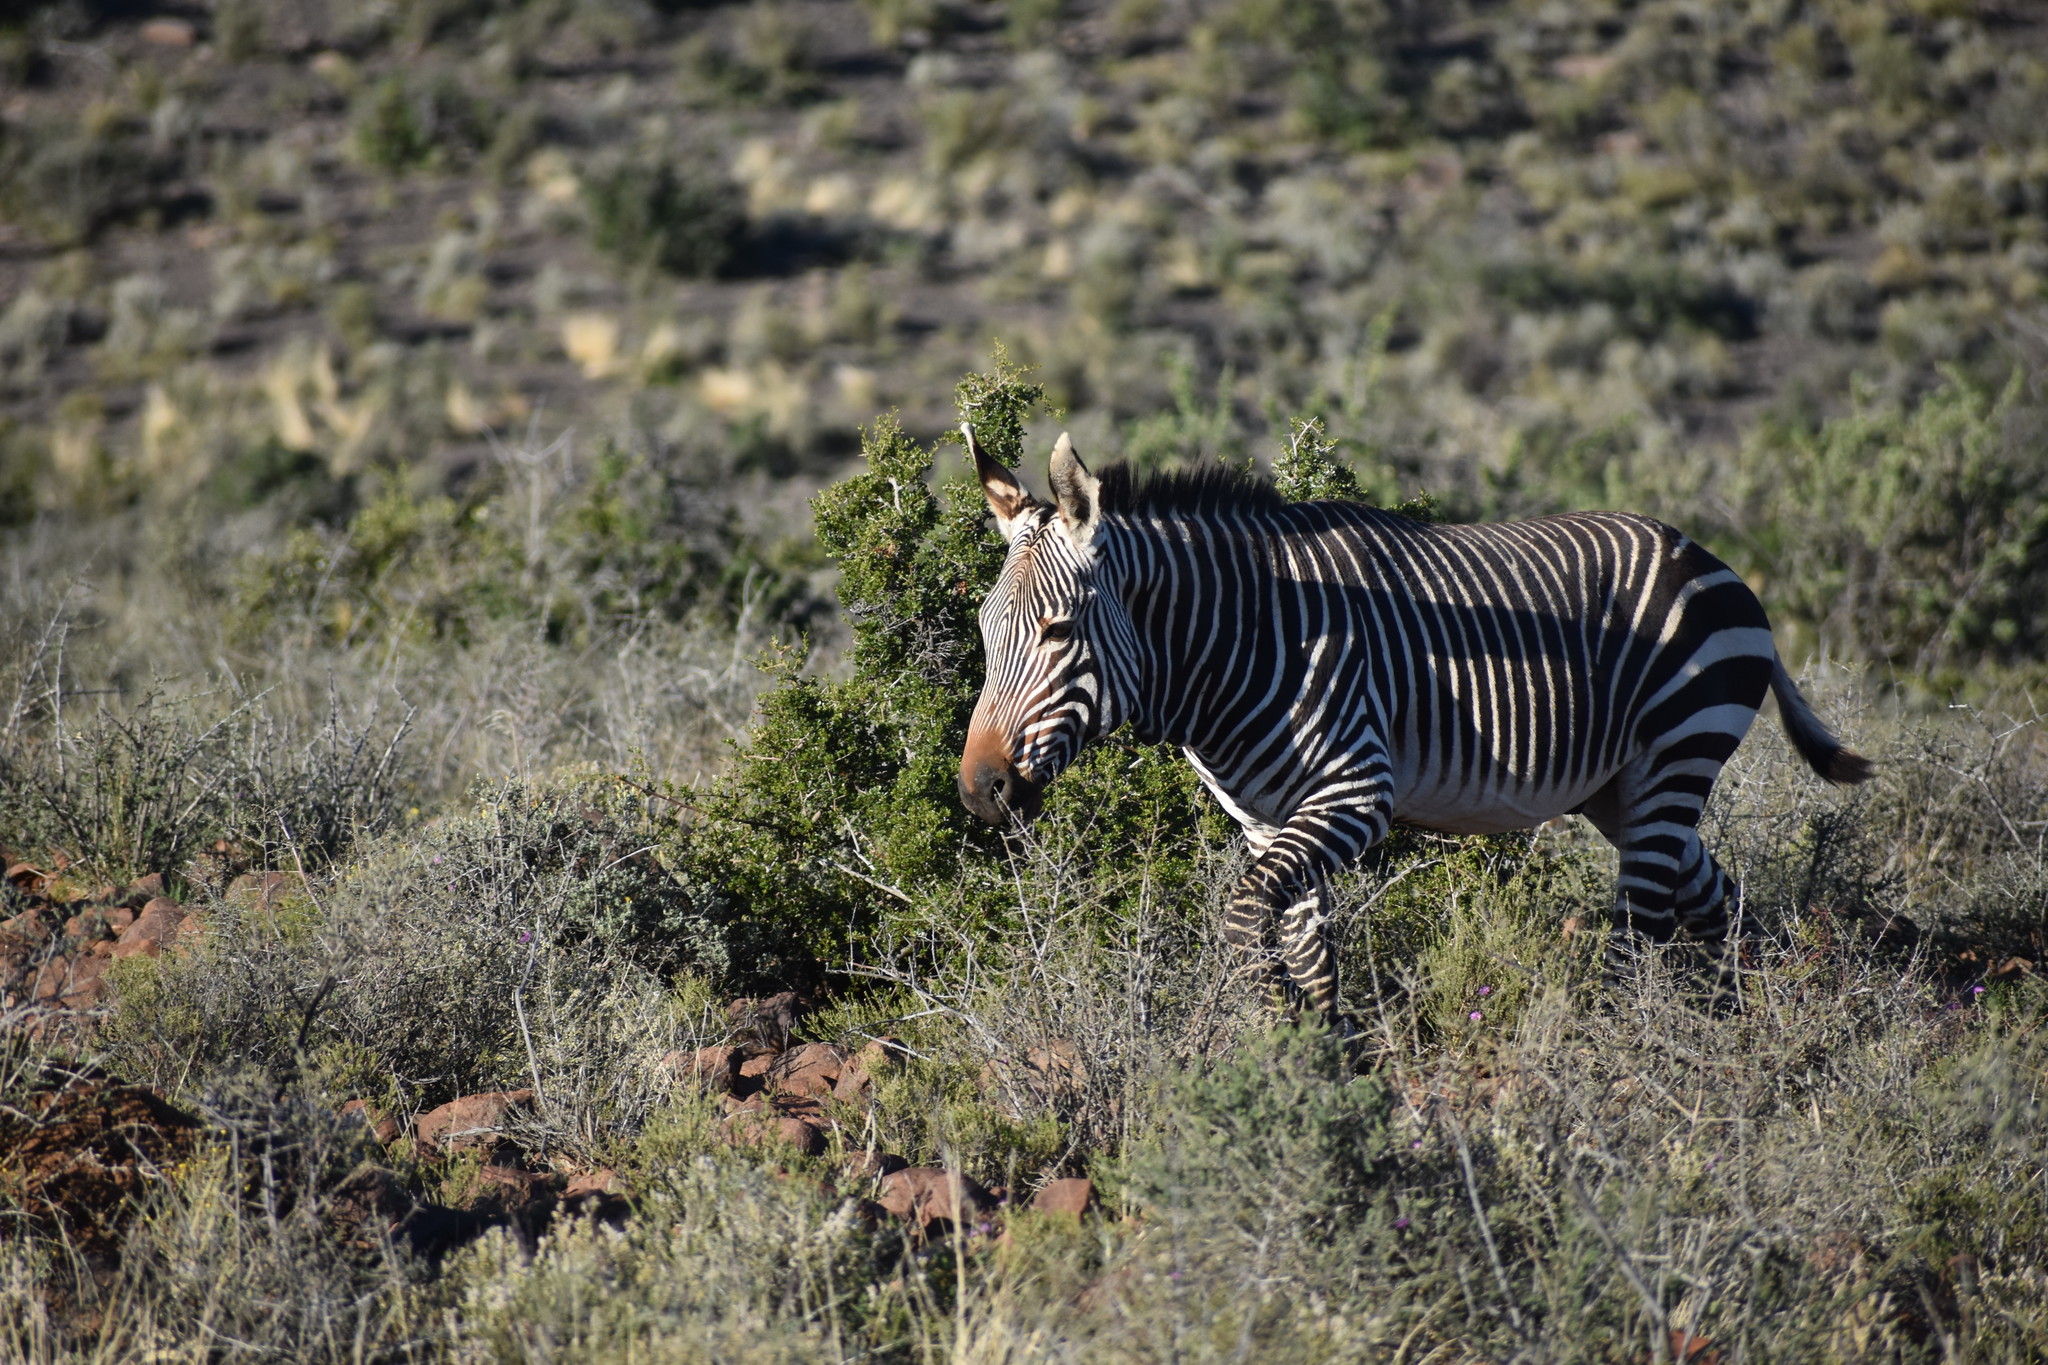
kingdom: Animalia
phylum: Chordata
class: Mammalia
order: Perissodactyla
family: Equidae
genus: Equus
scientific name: Equus zebra
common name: Mountain zebra
